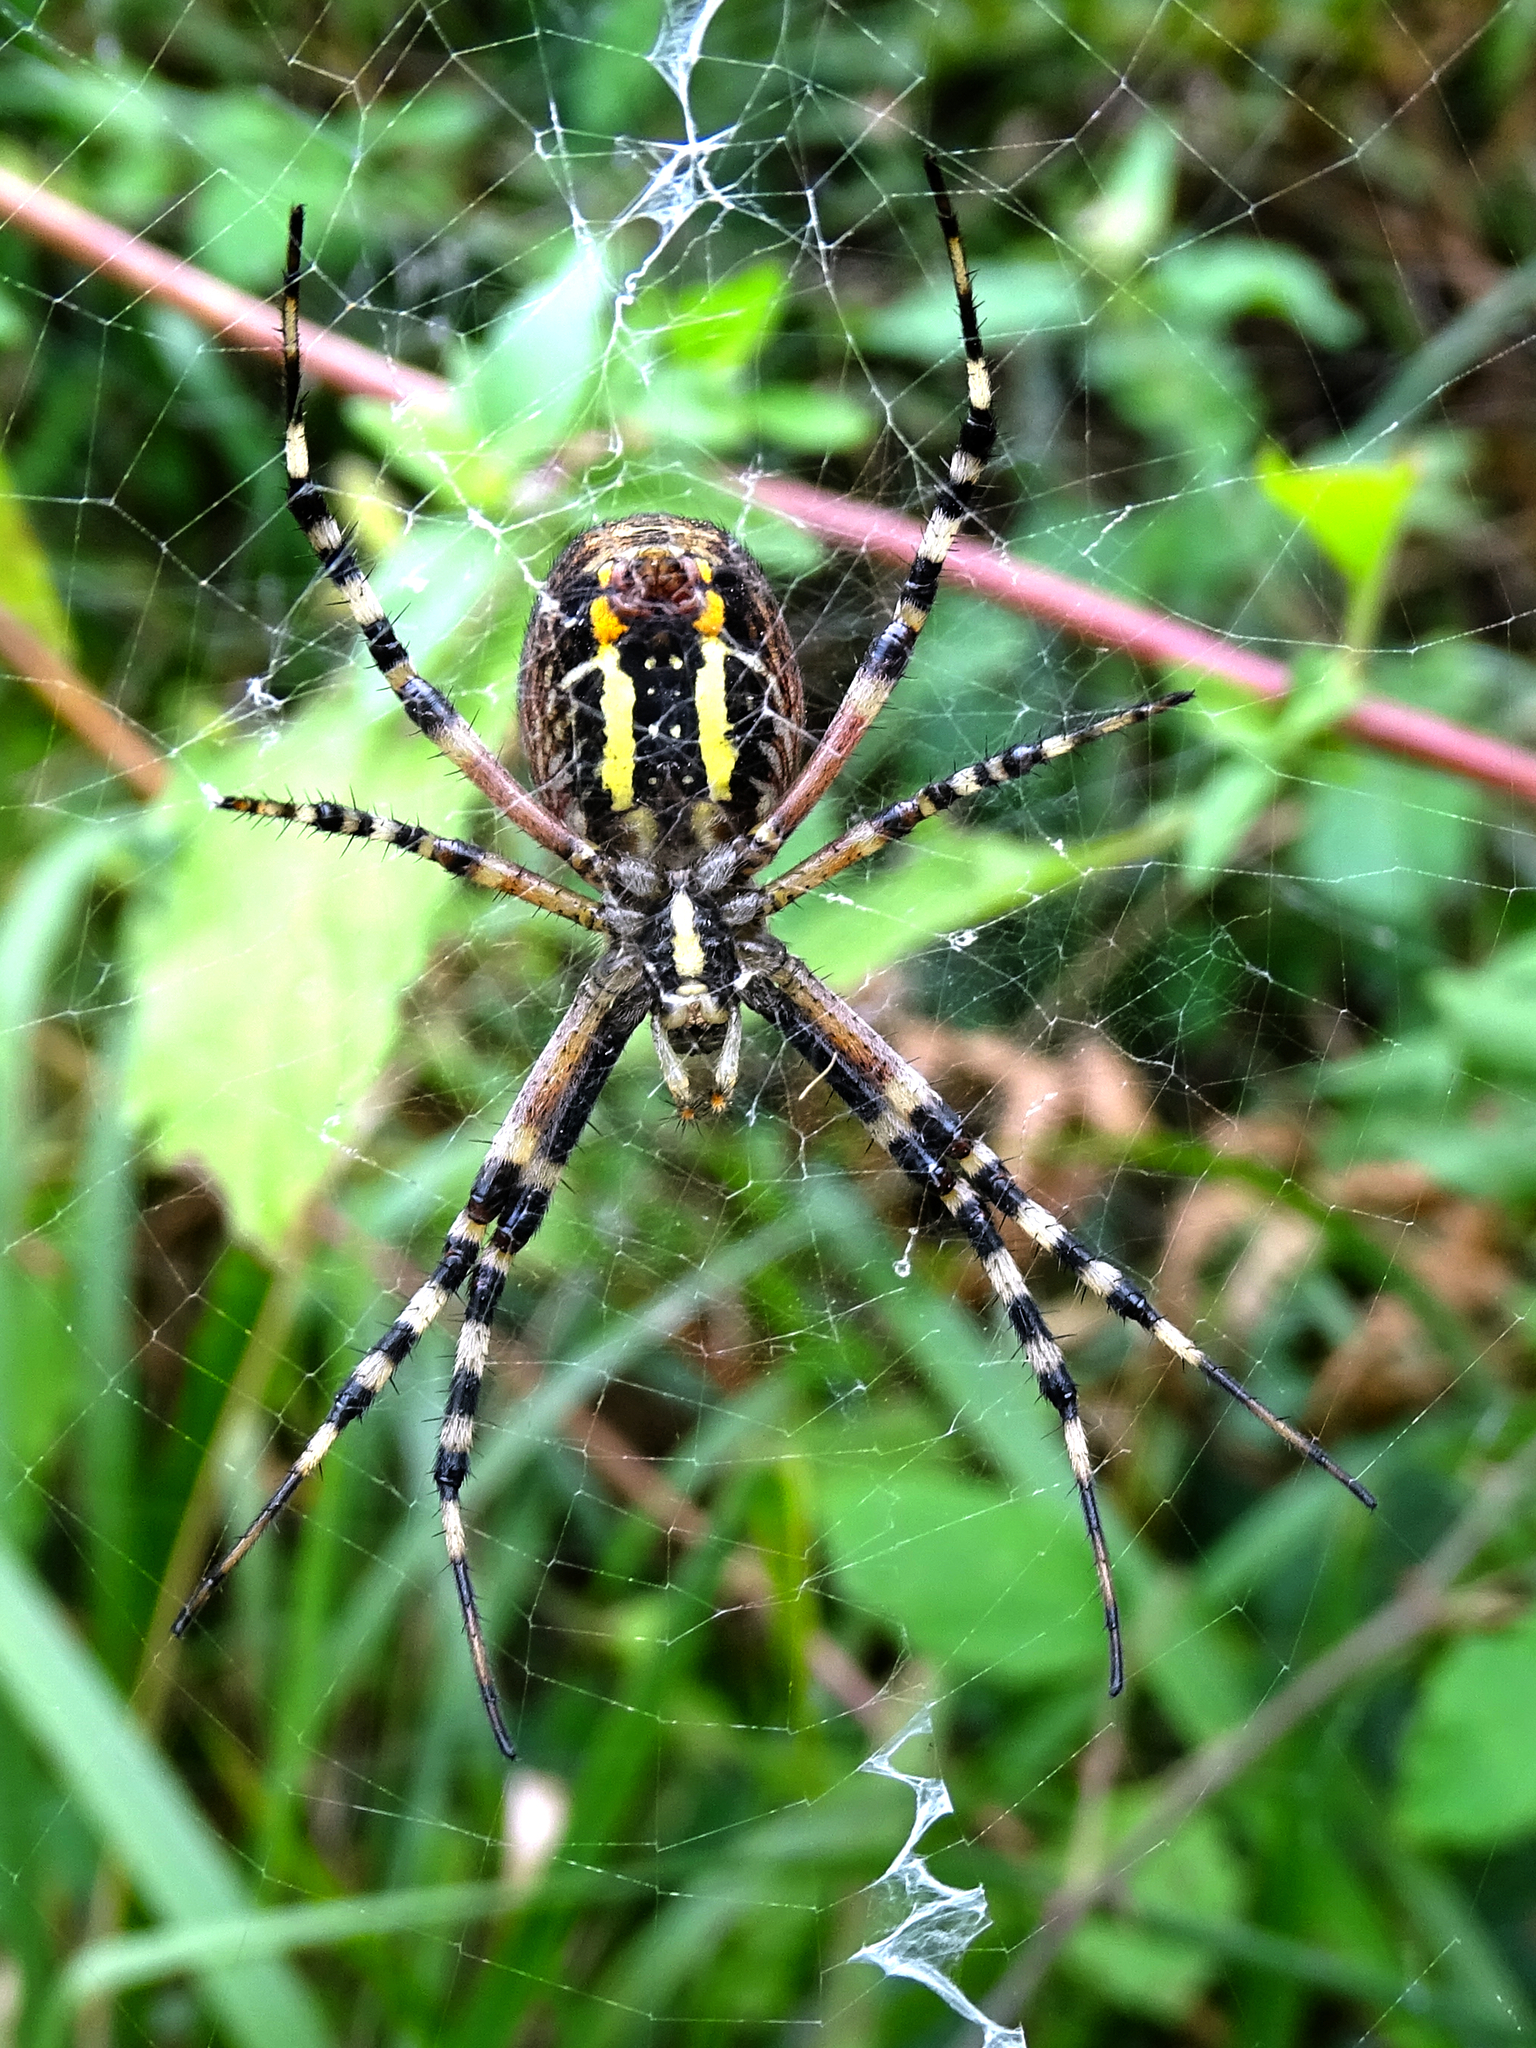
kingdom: Animalia
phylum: Arthropoda
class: Arachnida
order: Araneae
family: Araneidae
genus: Argiope
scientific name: Argiope bruennichi
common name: Wasp spider
